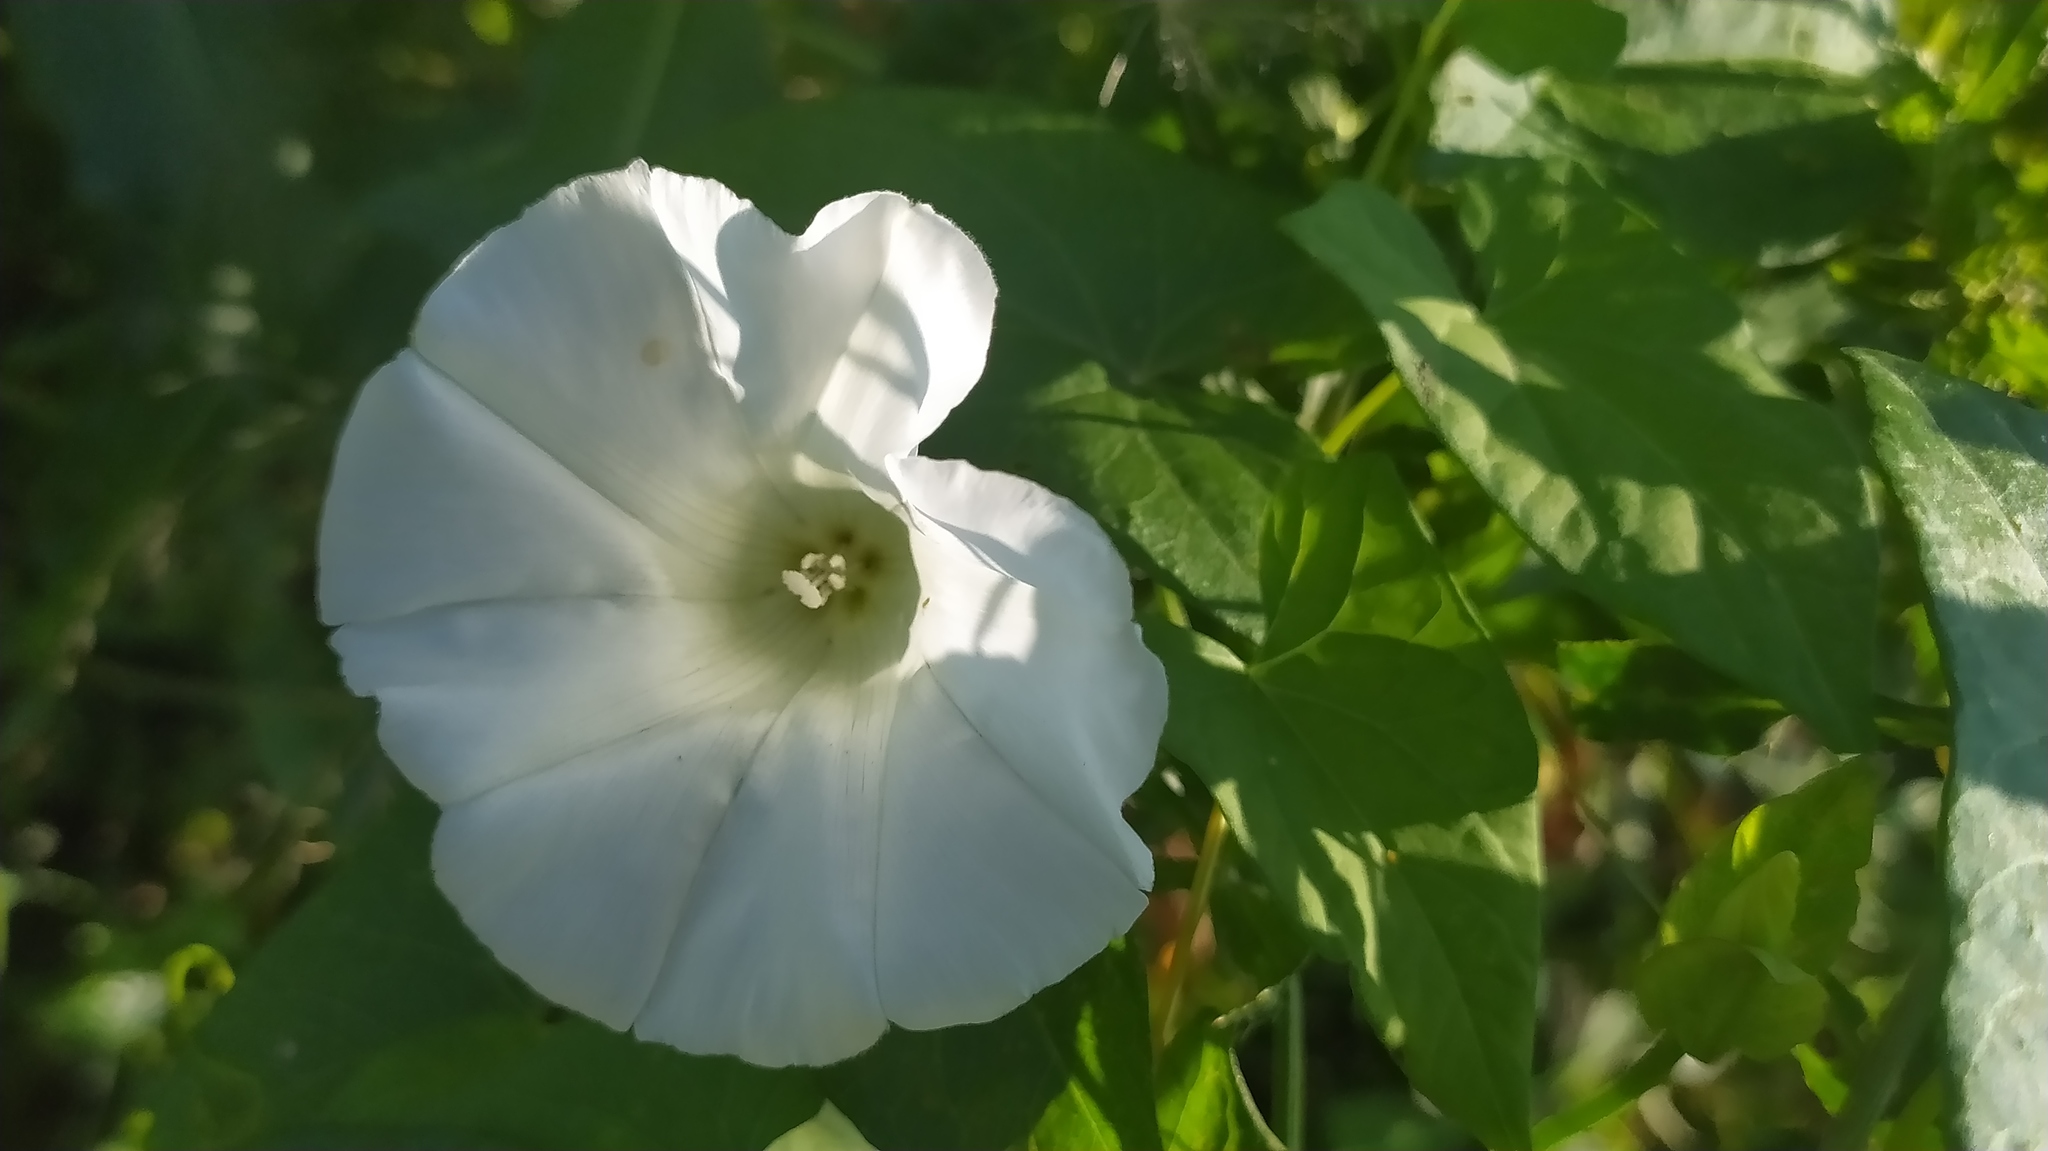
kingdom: Plantae
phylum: Tracheophyta
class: Magnoliopsida
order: Solanales
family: Convolvulaceae
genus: Calystegia
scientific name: Calystegia sepium
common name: Hedge bindweed
